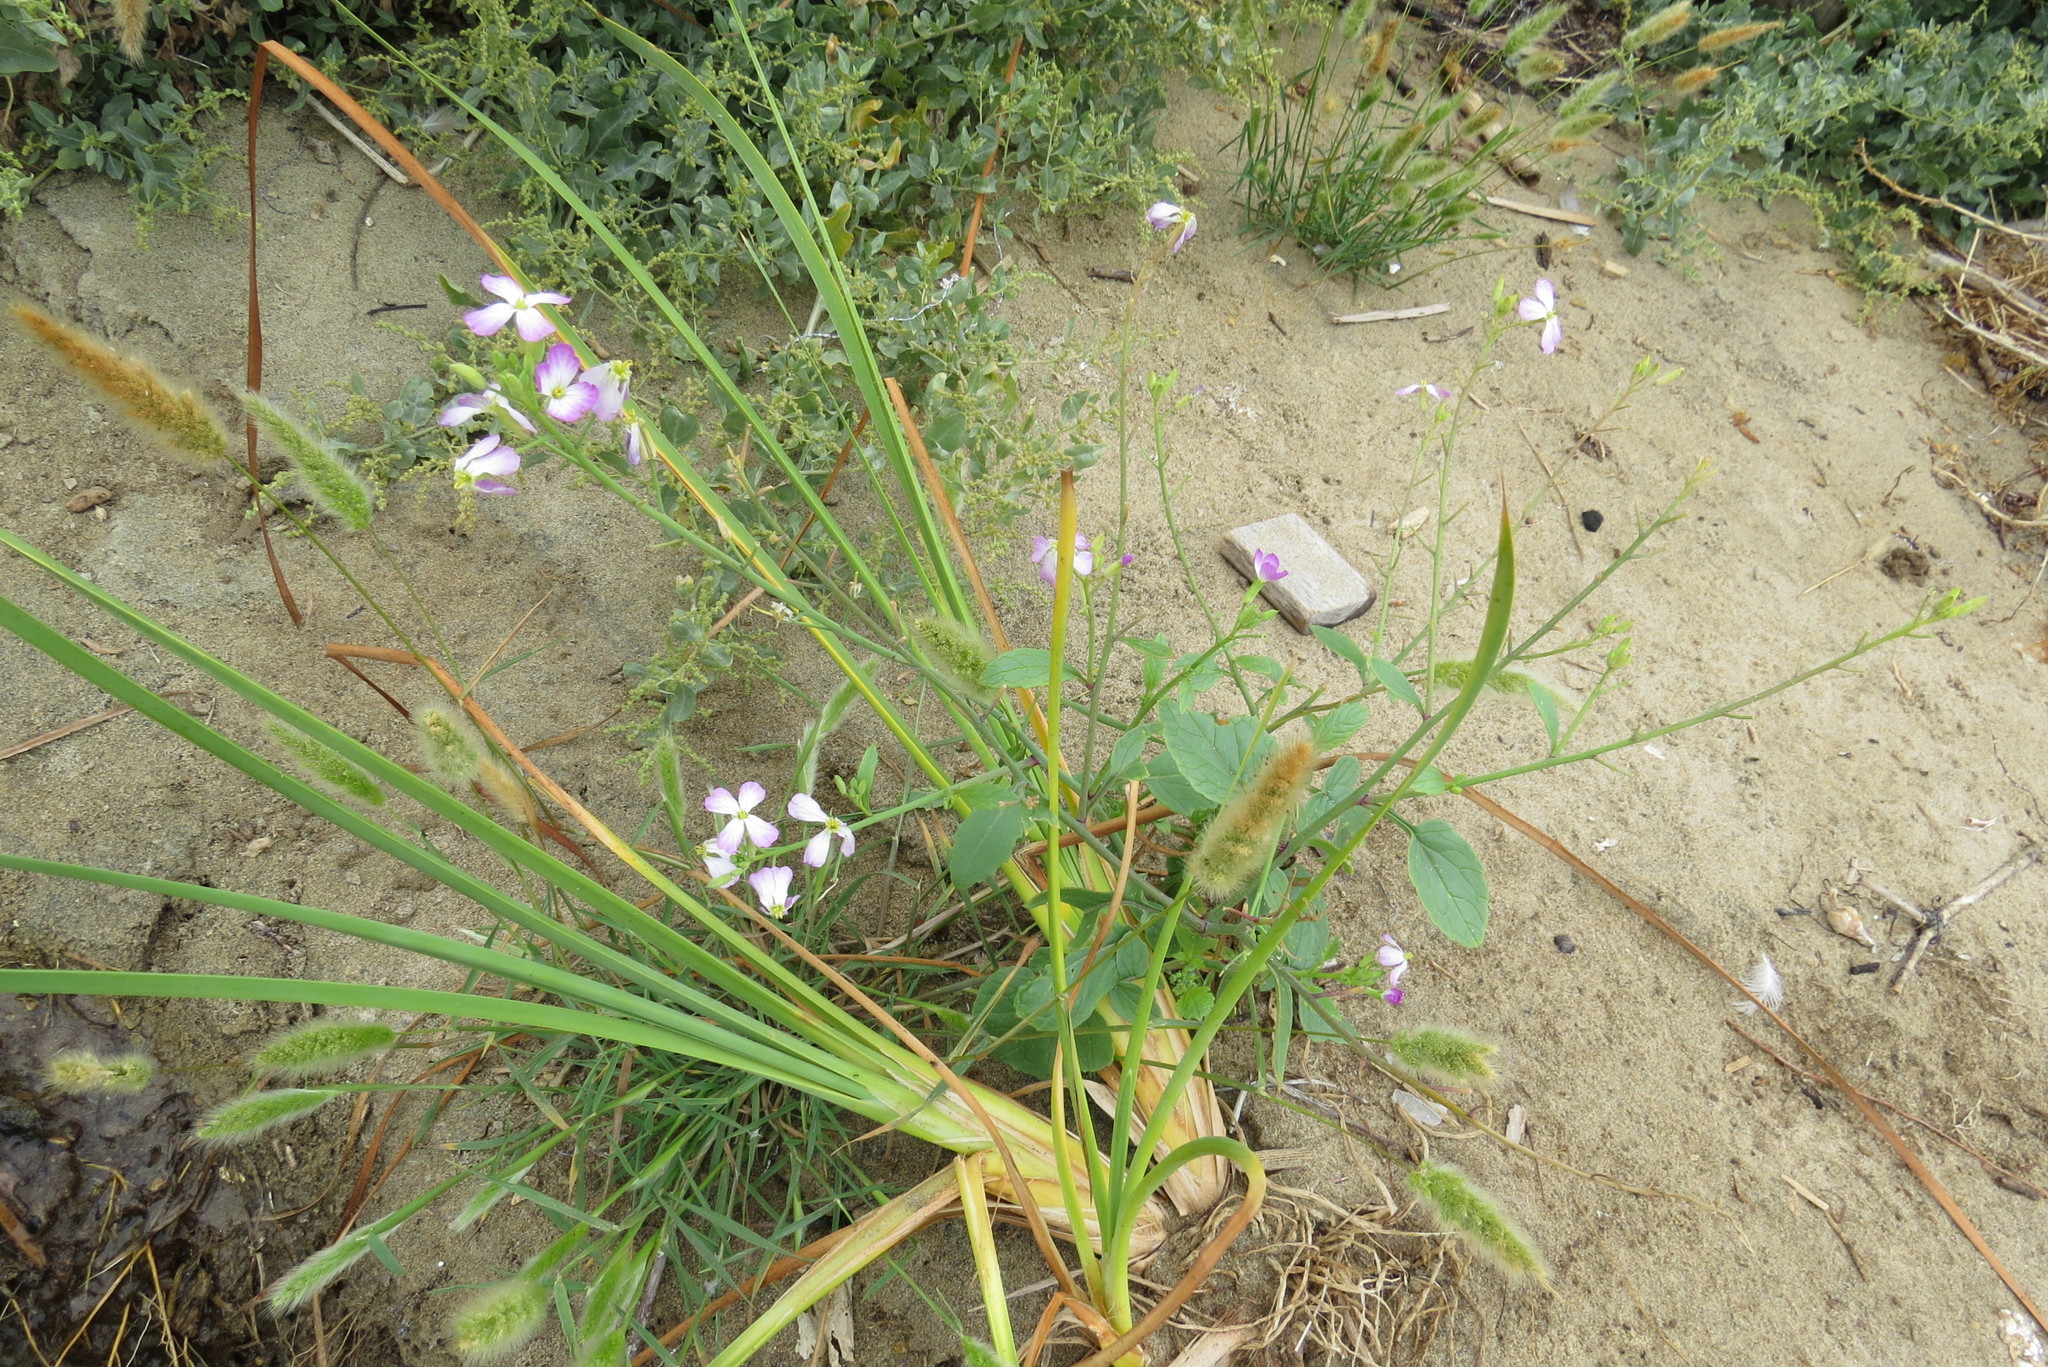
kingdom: Plantae
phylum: Tracheophyta
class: Magnoliopsida
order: Brassicales
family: Brassicaceae
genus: Raphanus
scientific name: Raphanus sativus
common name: Cultivated radish
